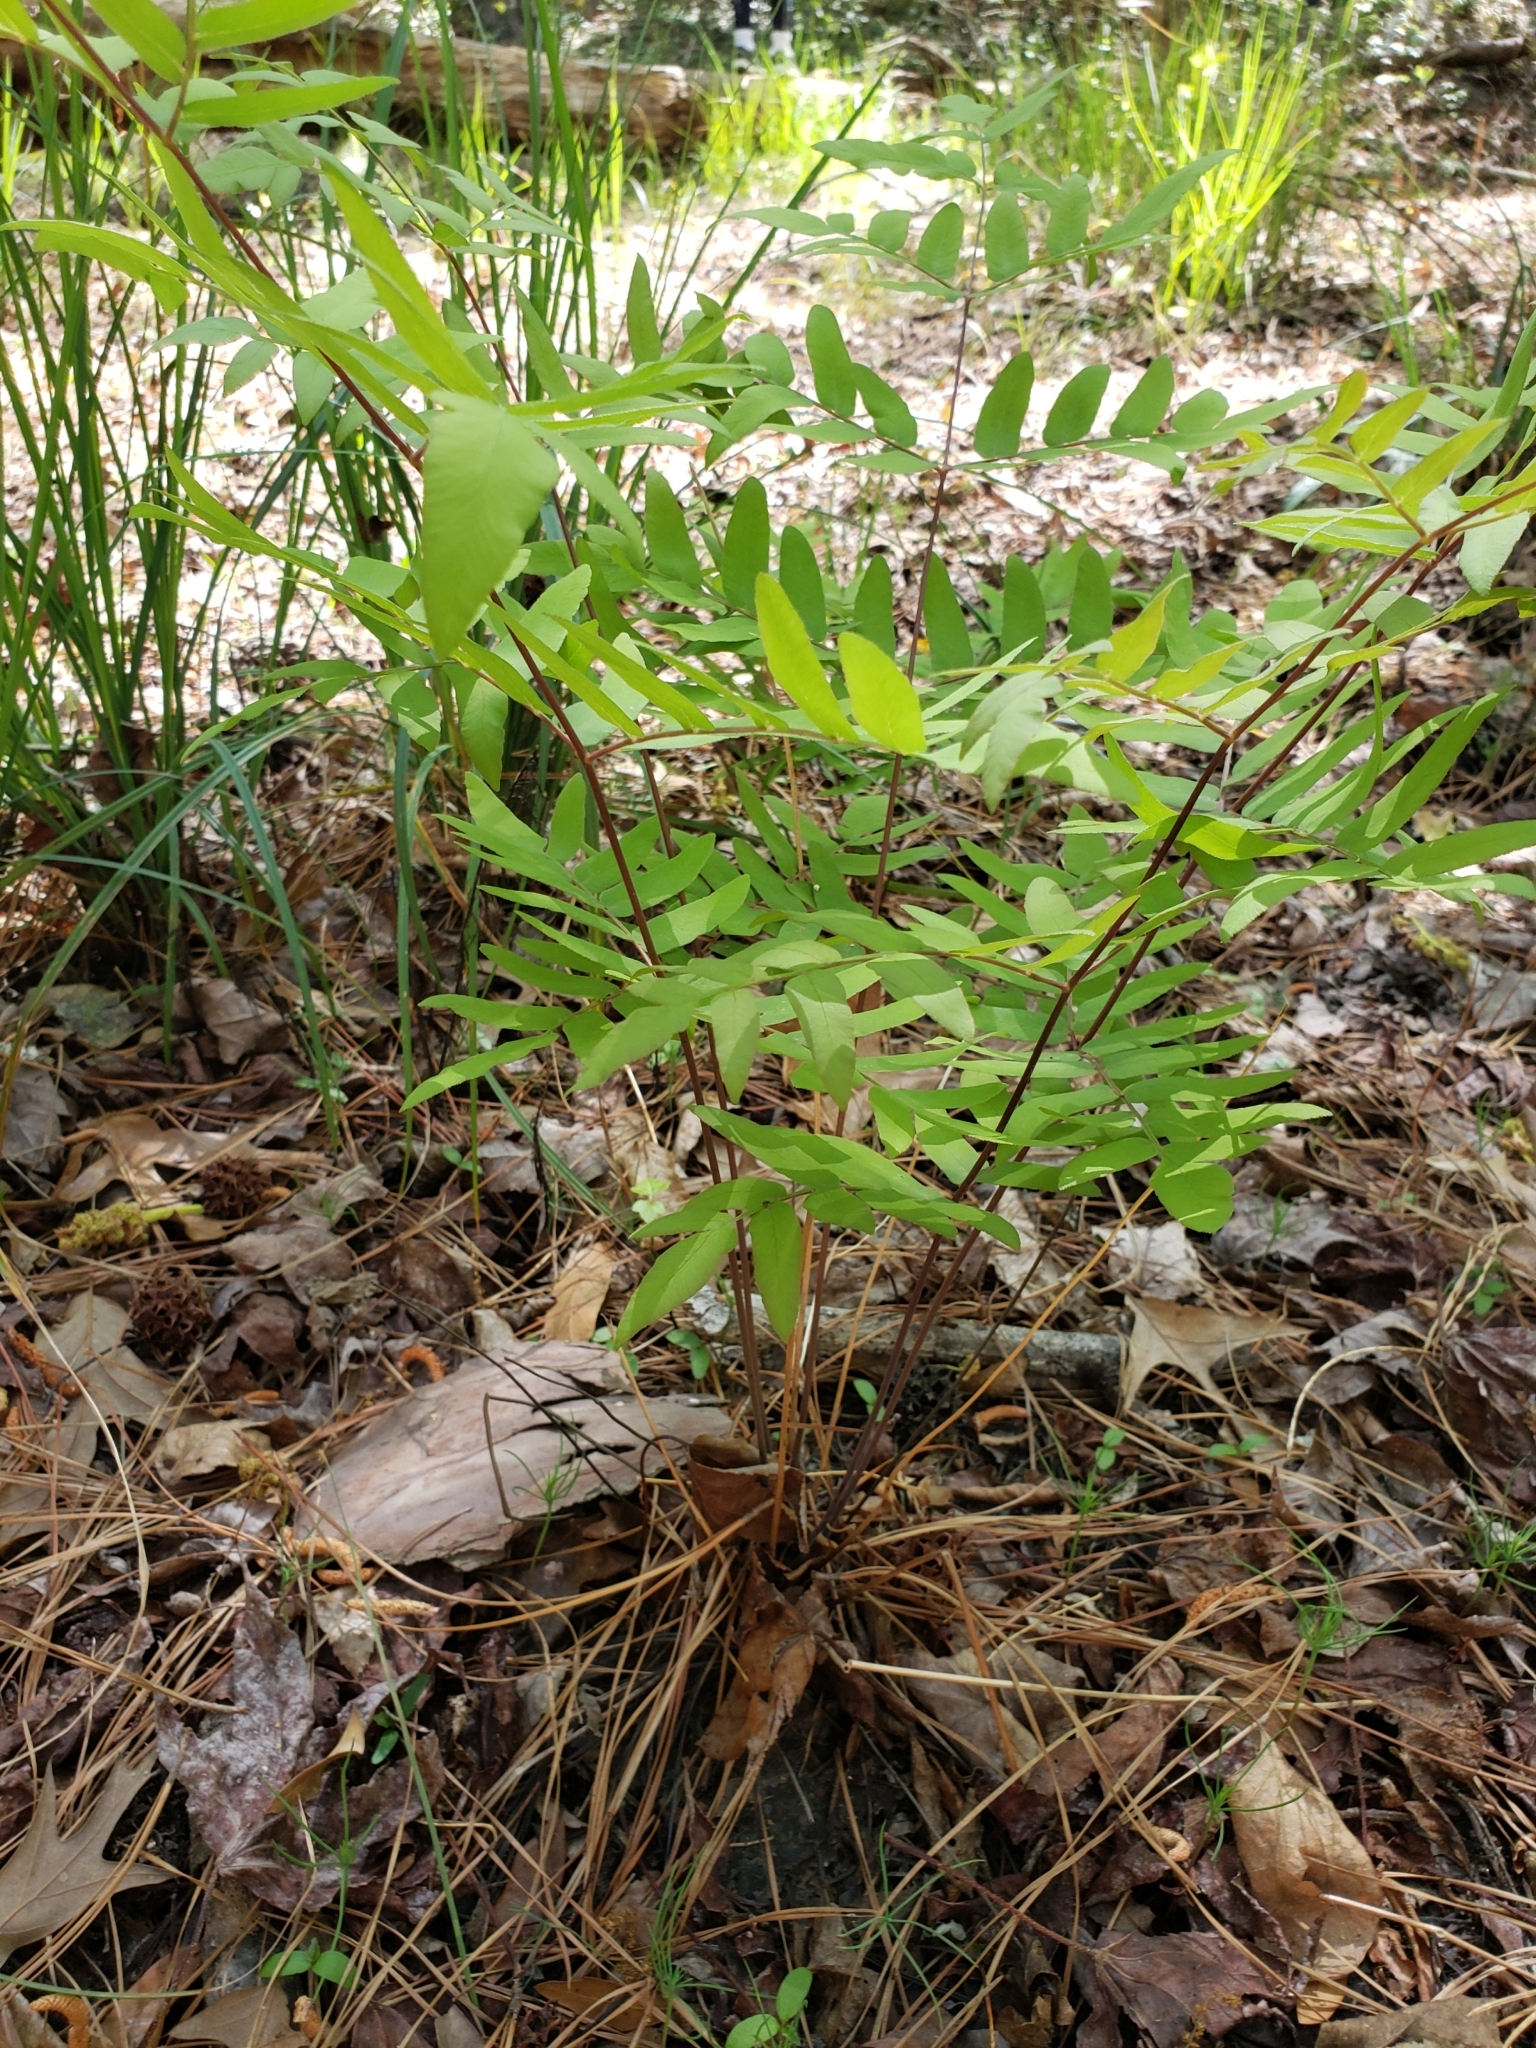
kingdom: Plantae
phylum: Tracheophyta
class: Polypodiopsida
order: Osmundales
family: Osmundaceae
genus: Osmunda
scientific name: Osmunda spectabilis
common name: American royal fern
